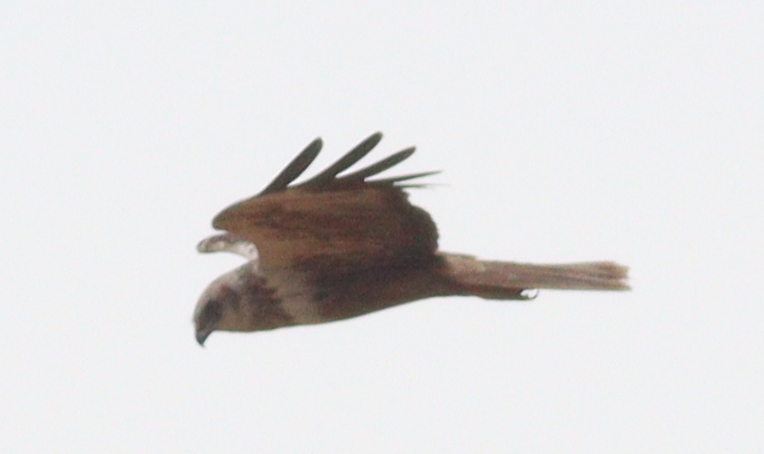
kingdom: Animalia
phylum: Chordata
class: Aves
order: Accipitriformes
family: Accipitridae
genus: Circus
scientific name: Circus aeruginosus
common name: Western marsh harrier
